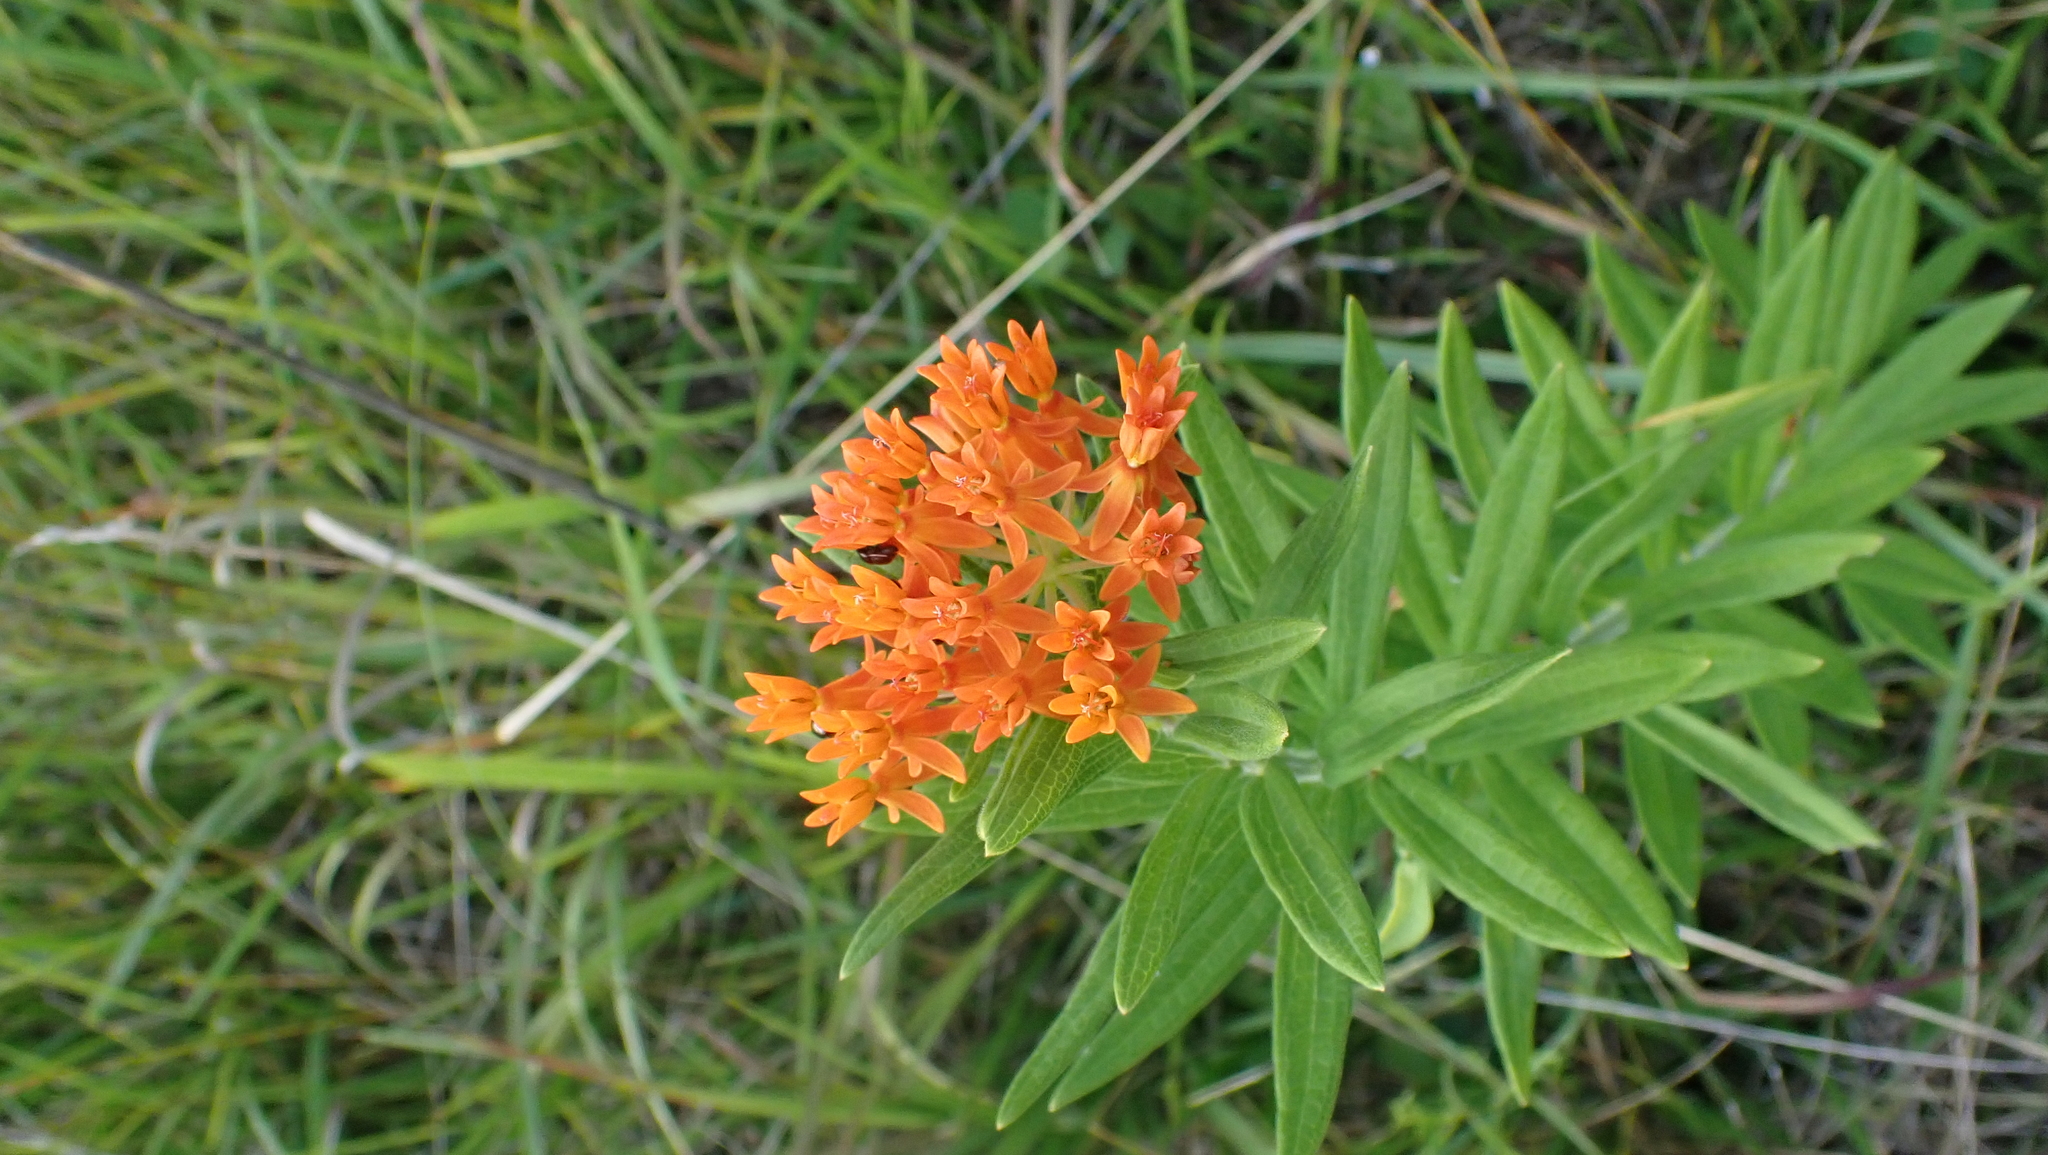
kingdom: Plantae
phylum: Tracheophyta
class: Magnoliopsida
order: Gentianales
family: Apocynaceae
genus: Asclepias
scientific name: Asclepias tuberosa
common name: Butterfly milkweed
